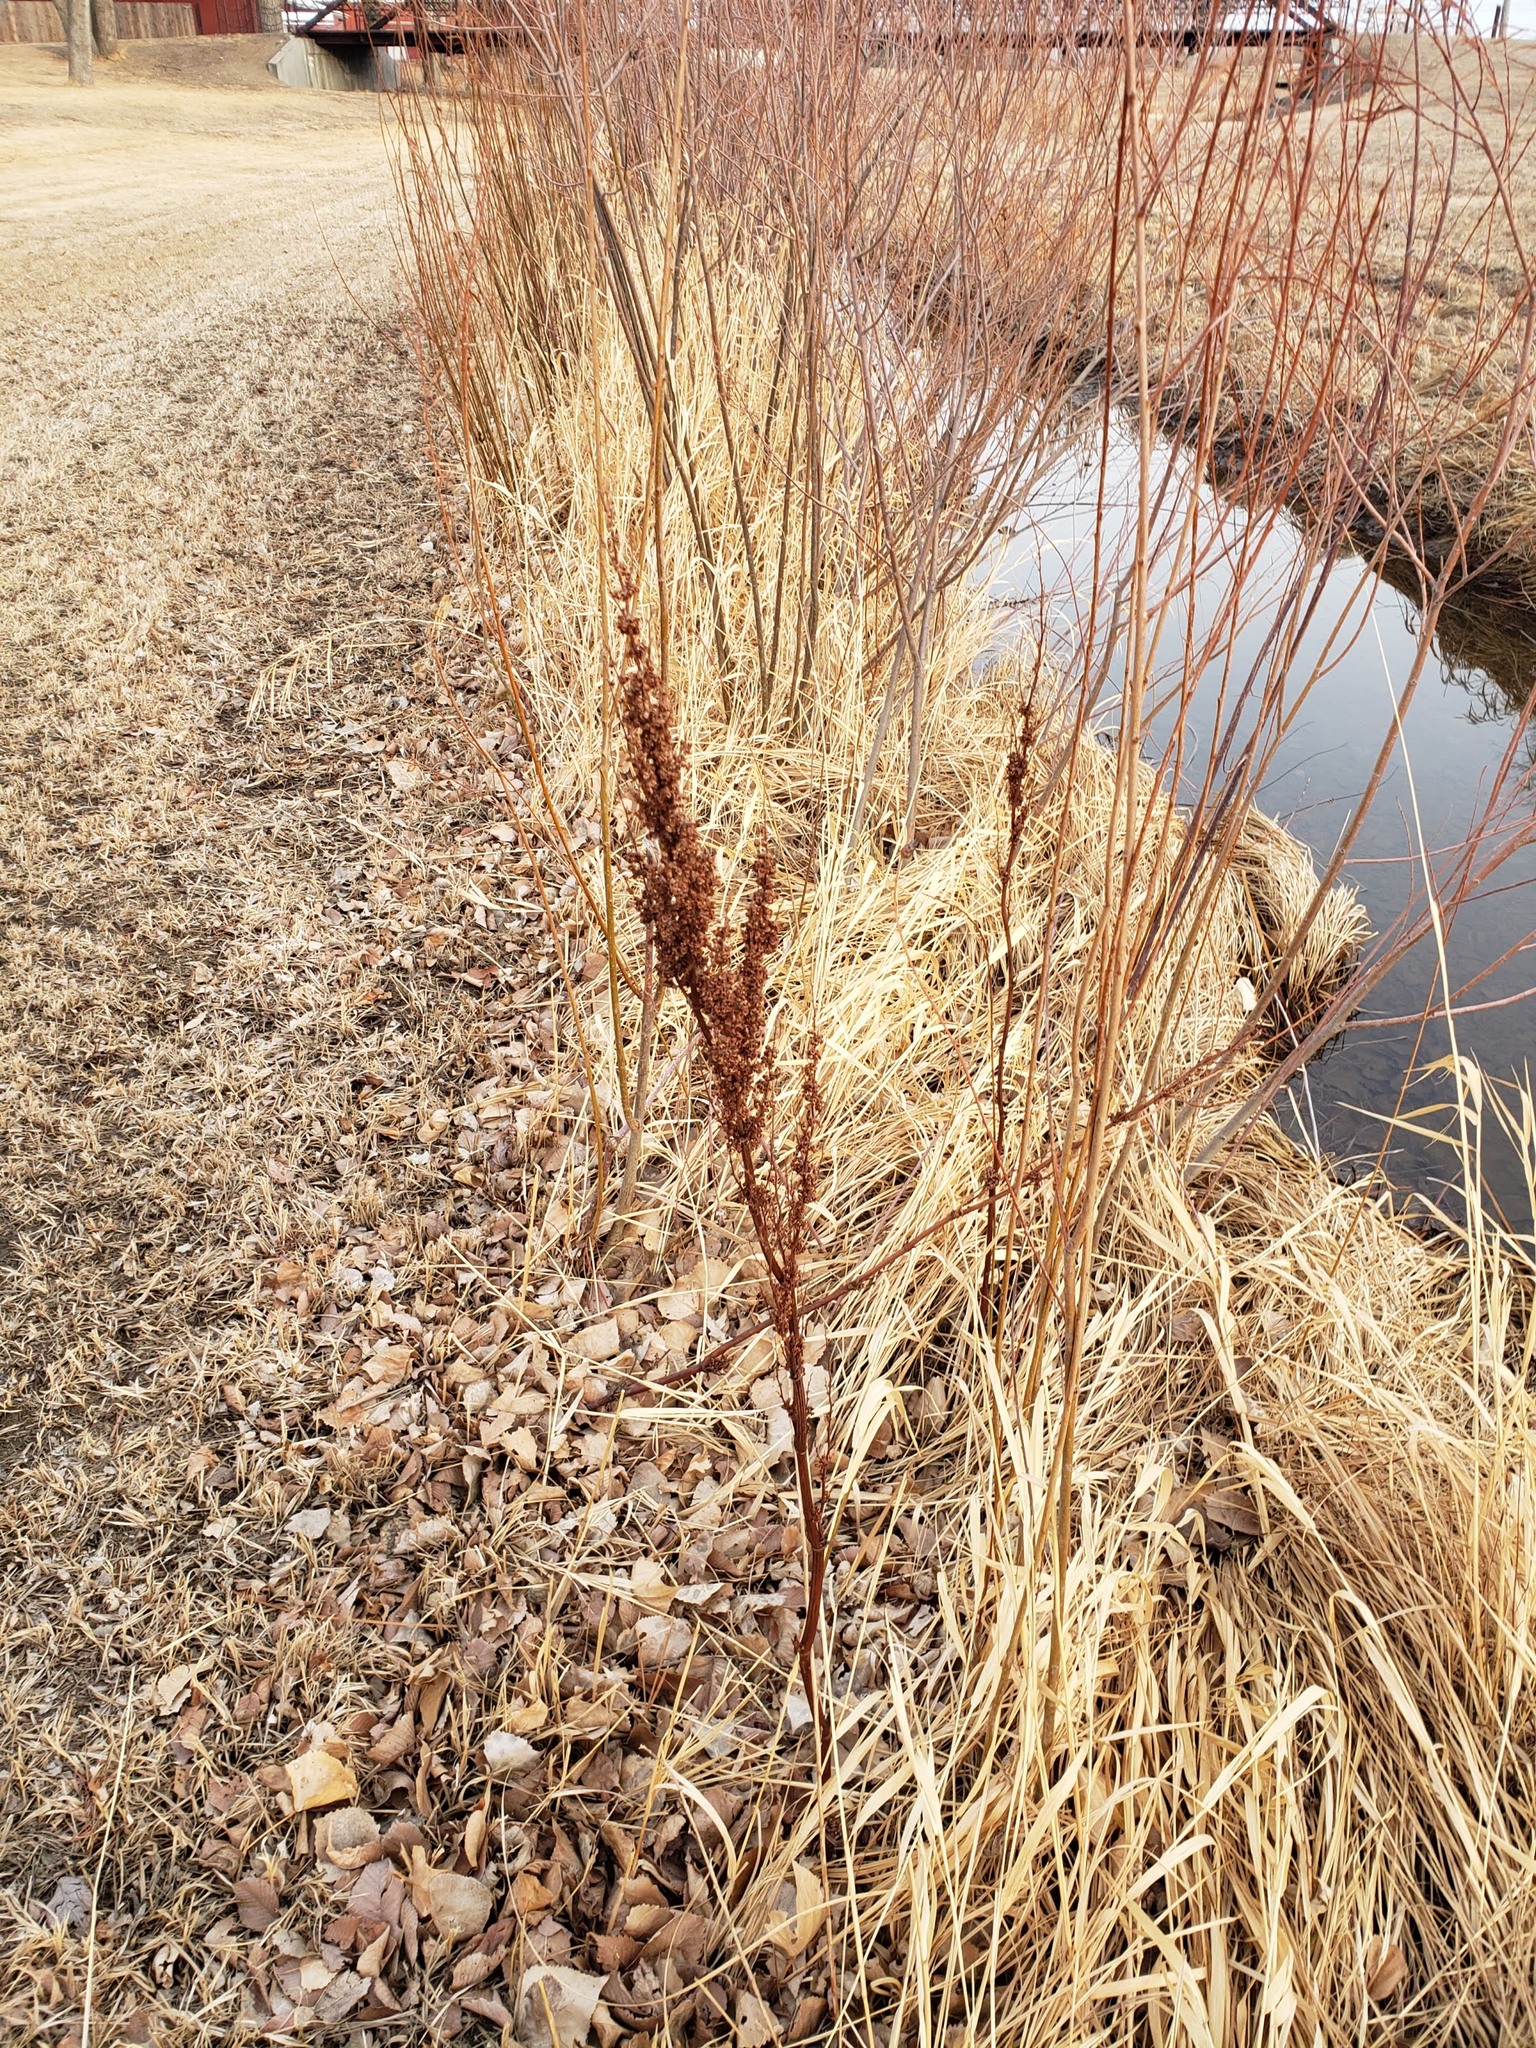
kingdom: Plantae
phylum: Tracheophyta
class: Magnoliopsida
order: Caryophyllales
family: Polygonaceae
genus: Rumex
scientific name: Rumex crispus
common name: Curled dock
